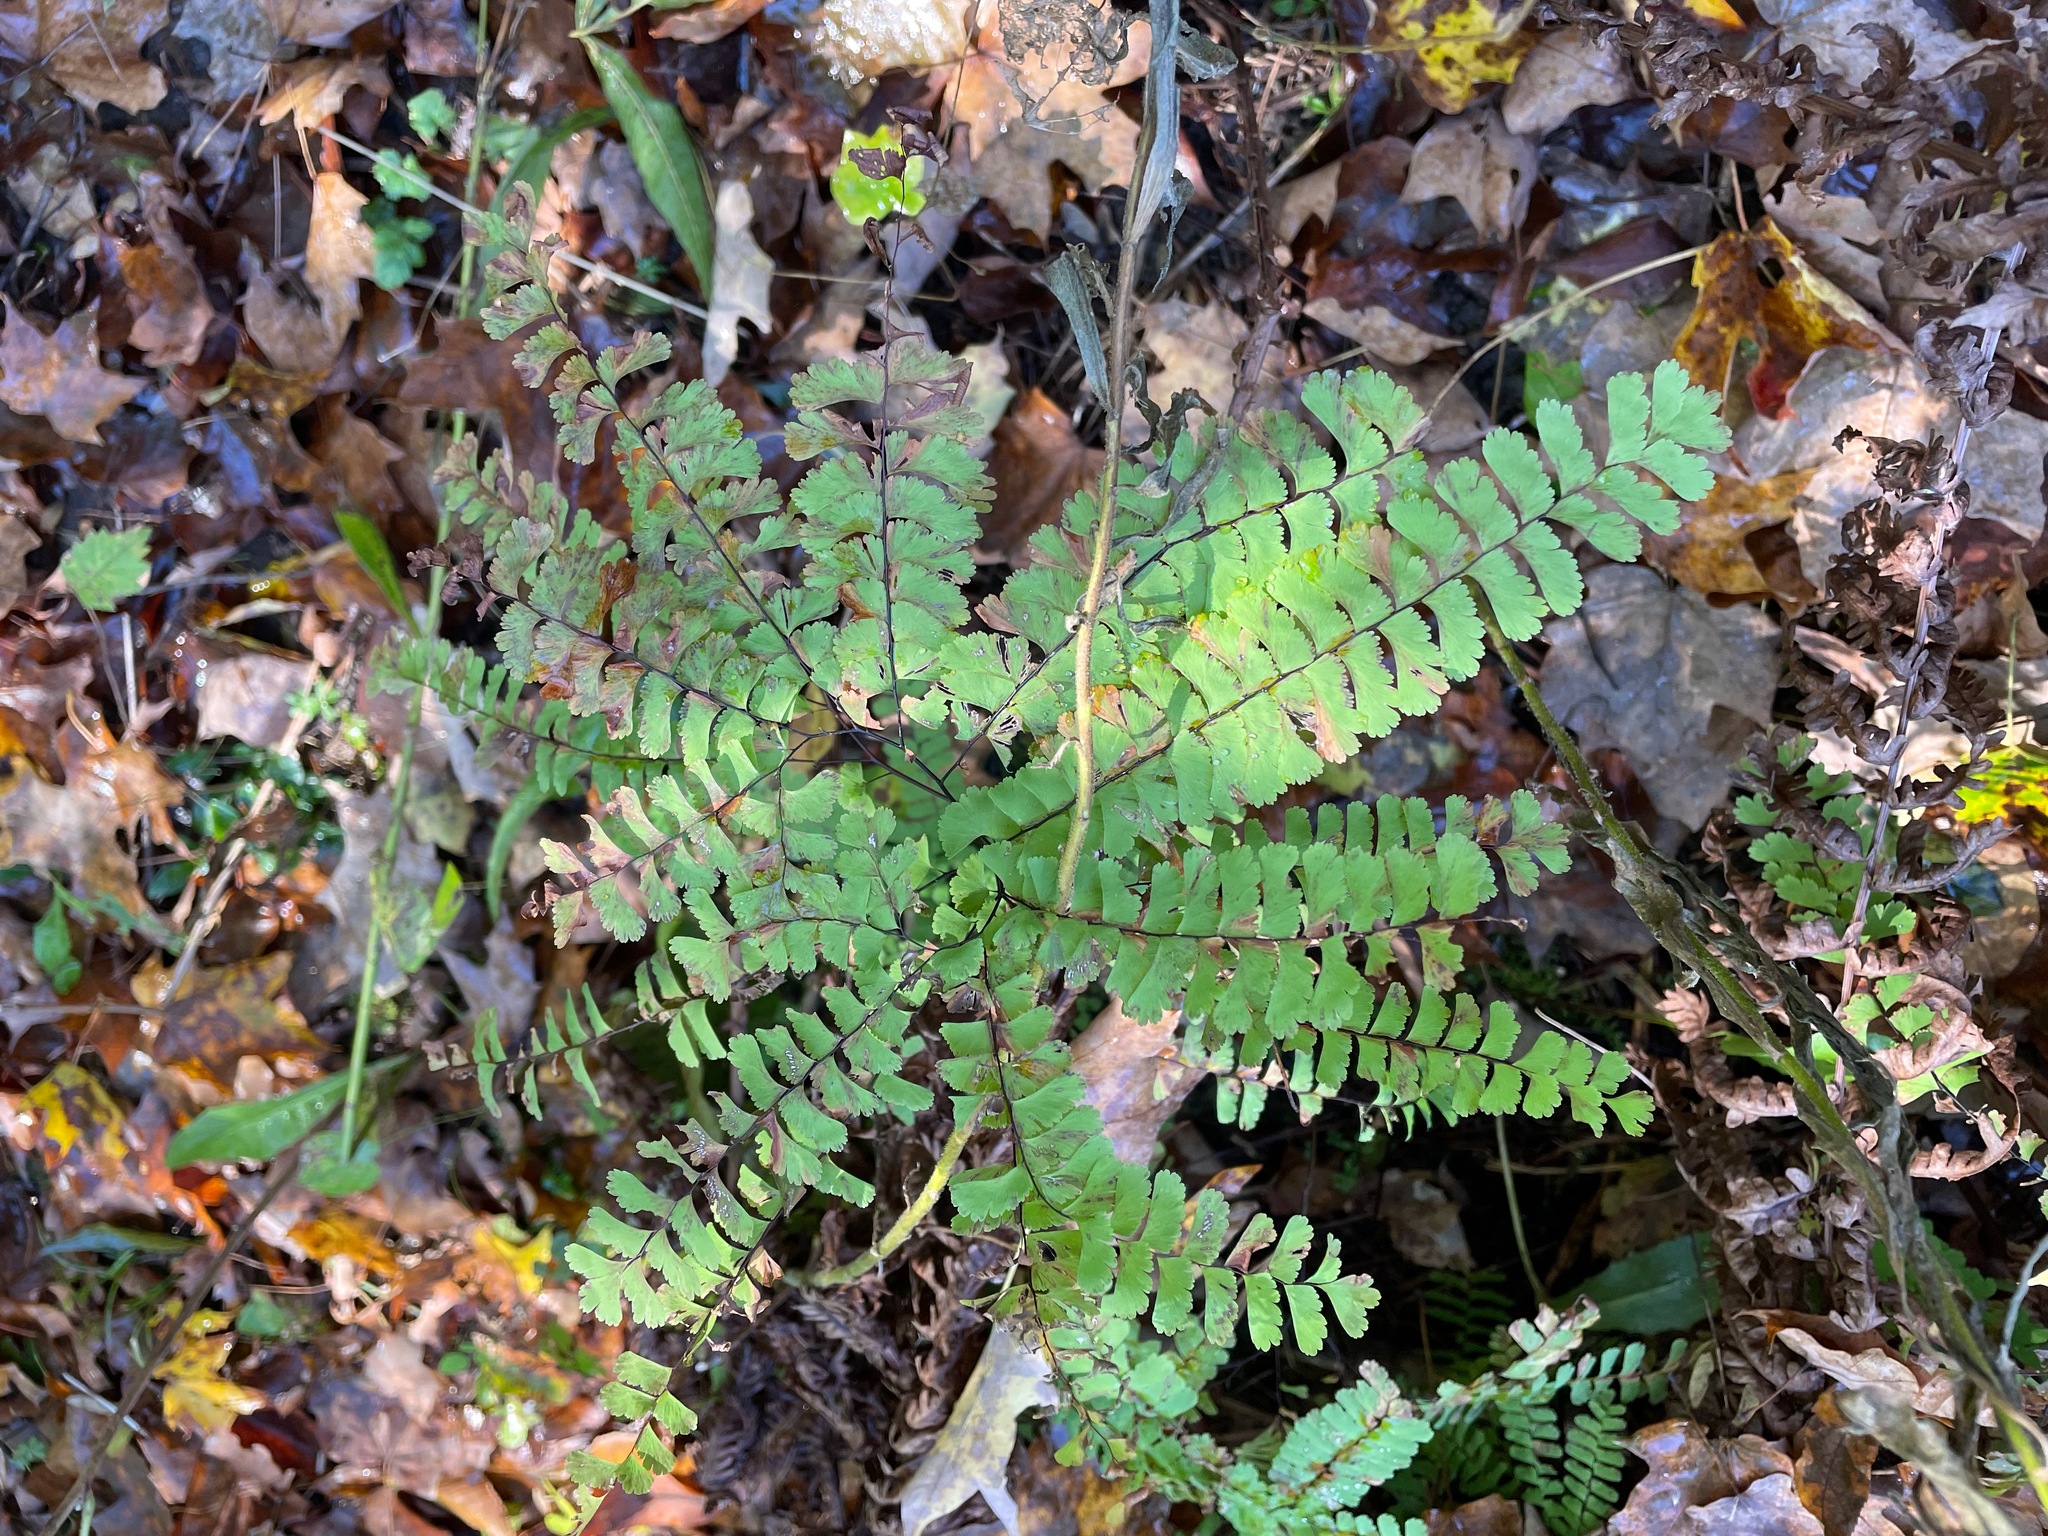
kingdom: Plantae
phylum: Tracheophyta
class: Polypodiopsida
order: Polypodiales
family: Pteridaceae
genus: Adiantum
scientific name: Adiantum pedatum
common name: Five-finger fern
